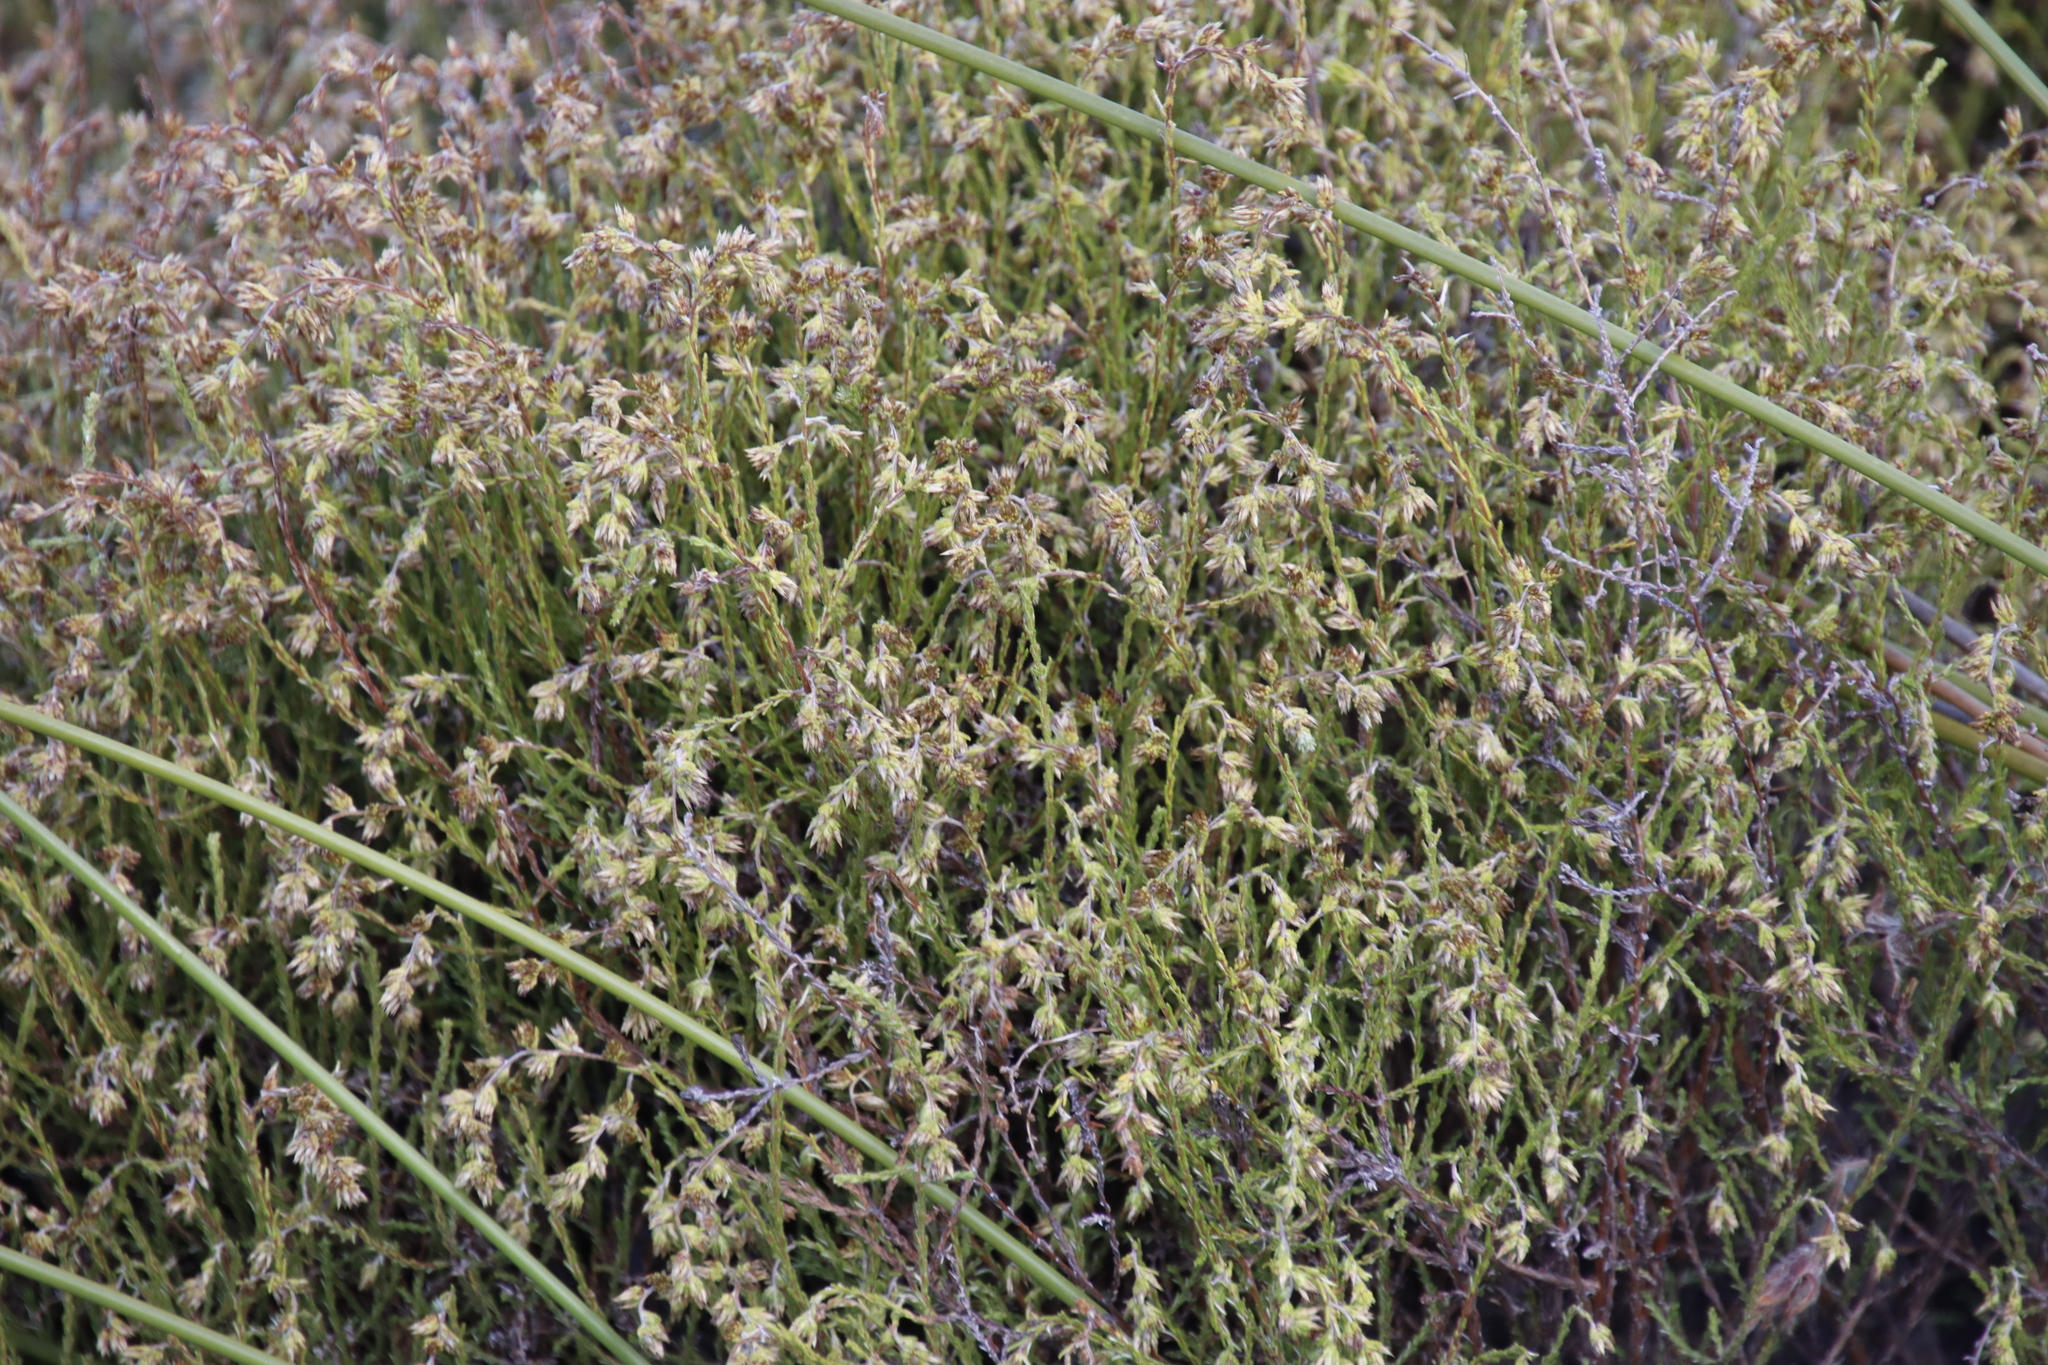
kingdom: Plantae
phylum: Tracheophyta
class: Magnoliopsida
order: Asterales
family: Asteraceae
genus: Myrovernix
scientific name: Myrovernix scaber
